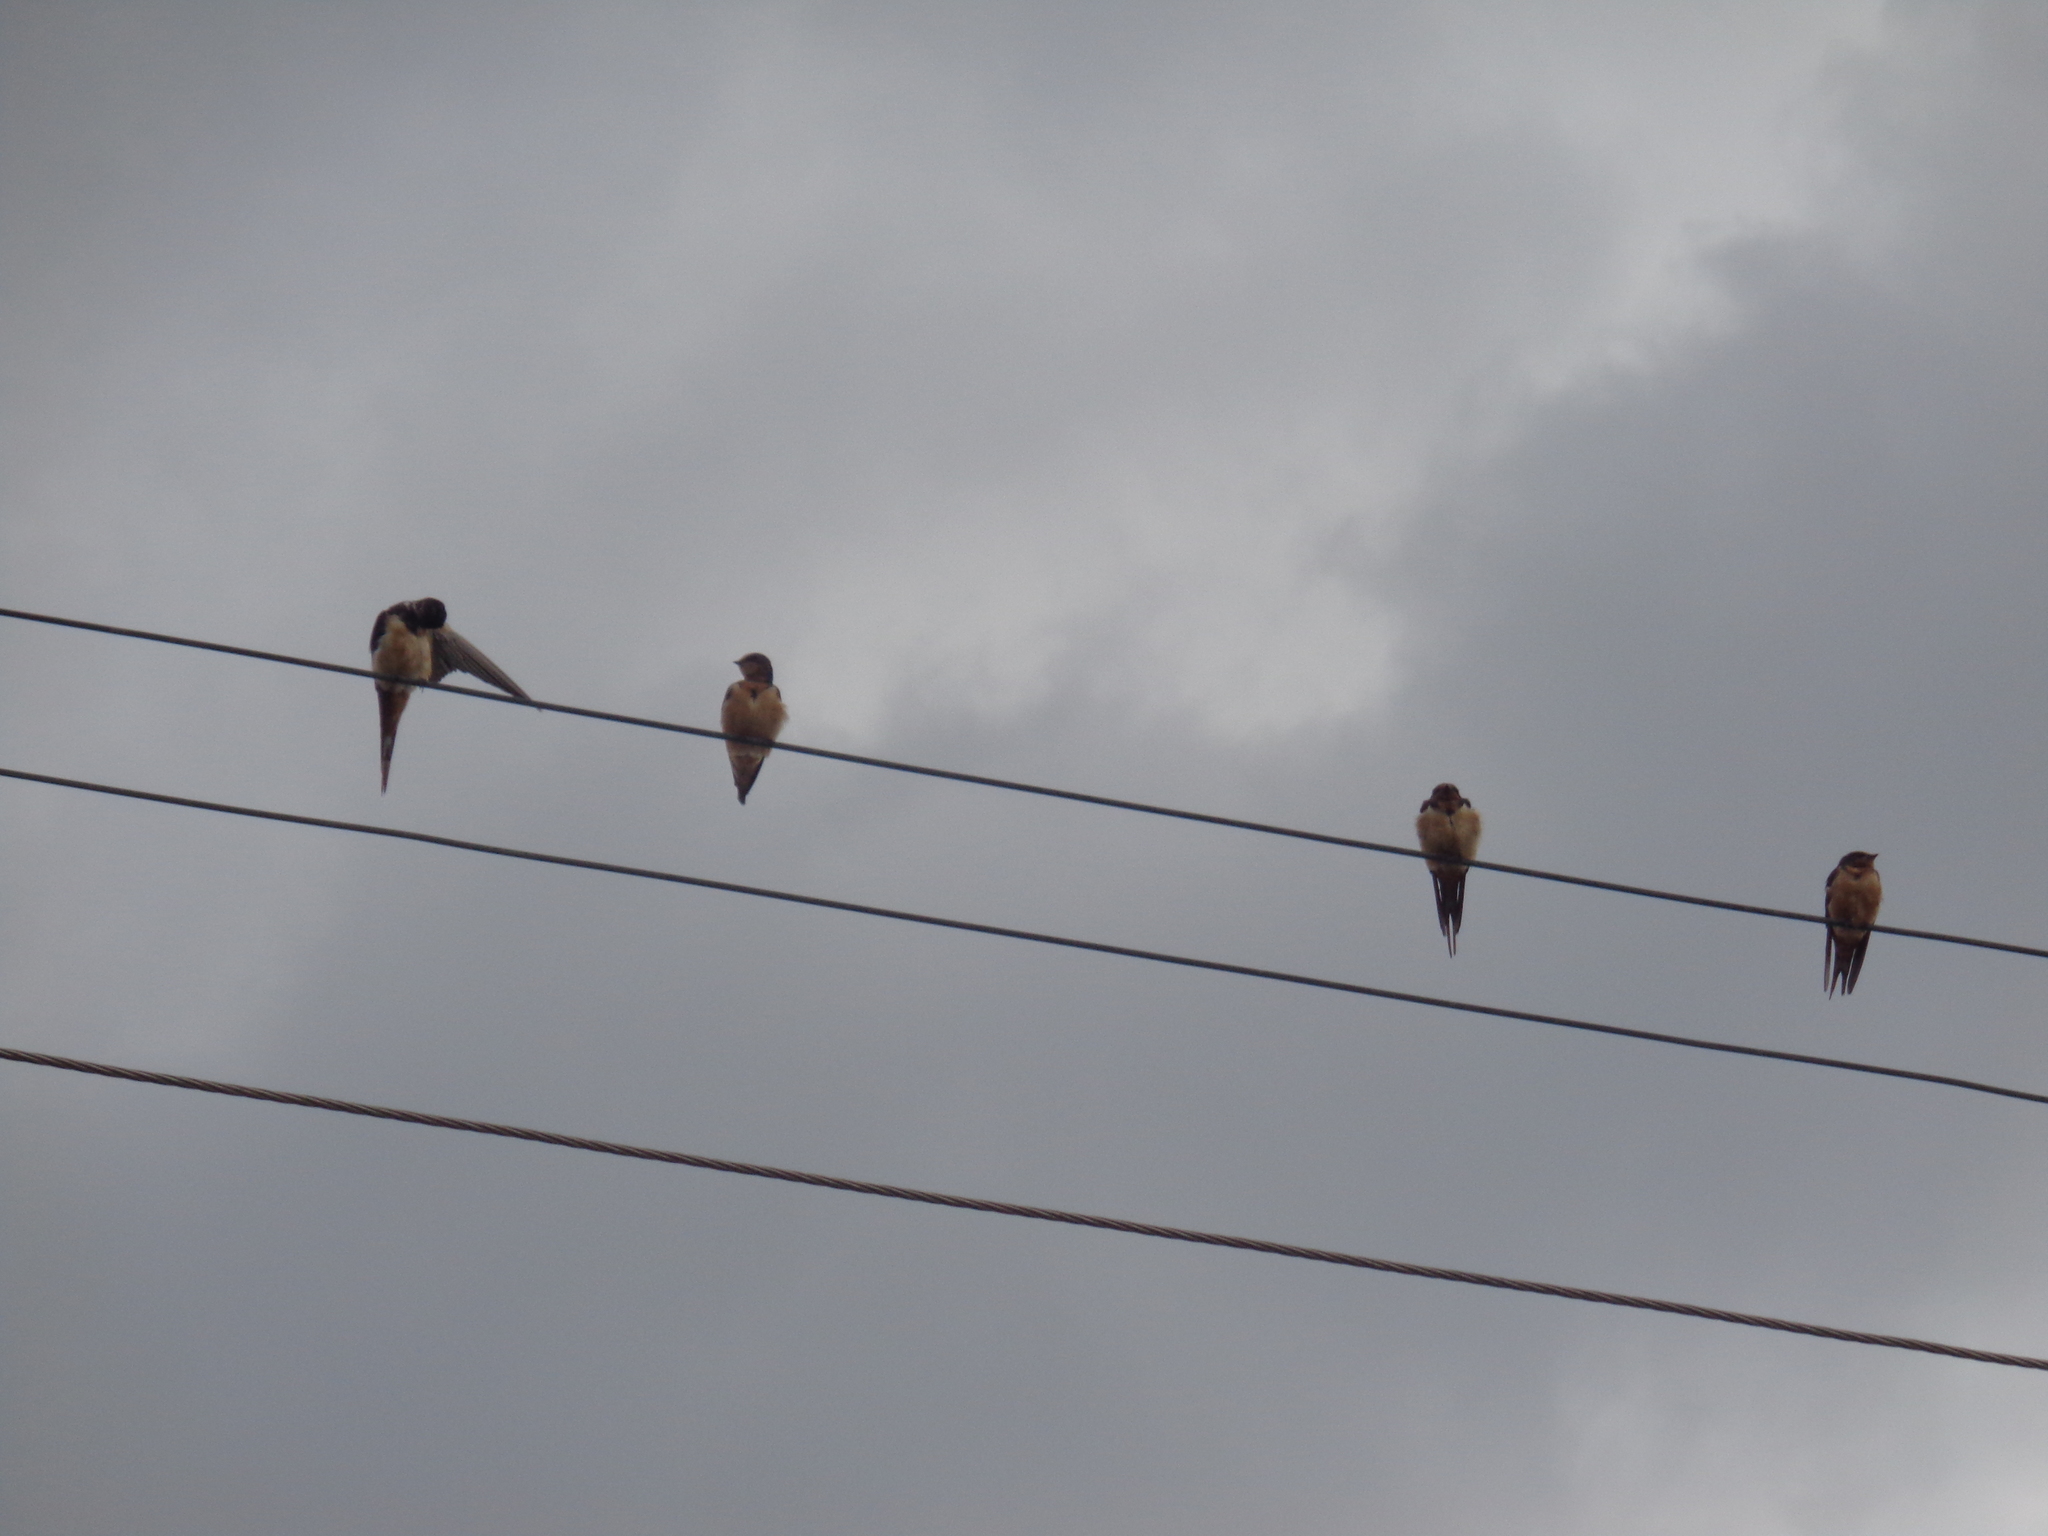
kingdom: Animalia
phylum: Chordata
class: Aves
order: Passeriformes
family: Hirundinidae
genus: Hirundo
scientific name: Hirundo rustica
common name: Barn swallow
